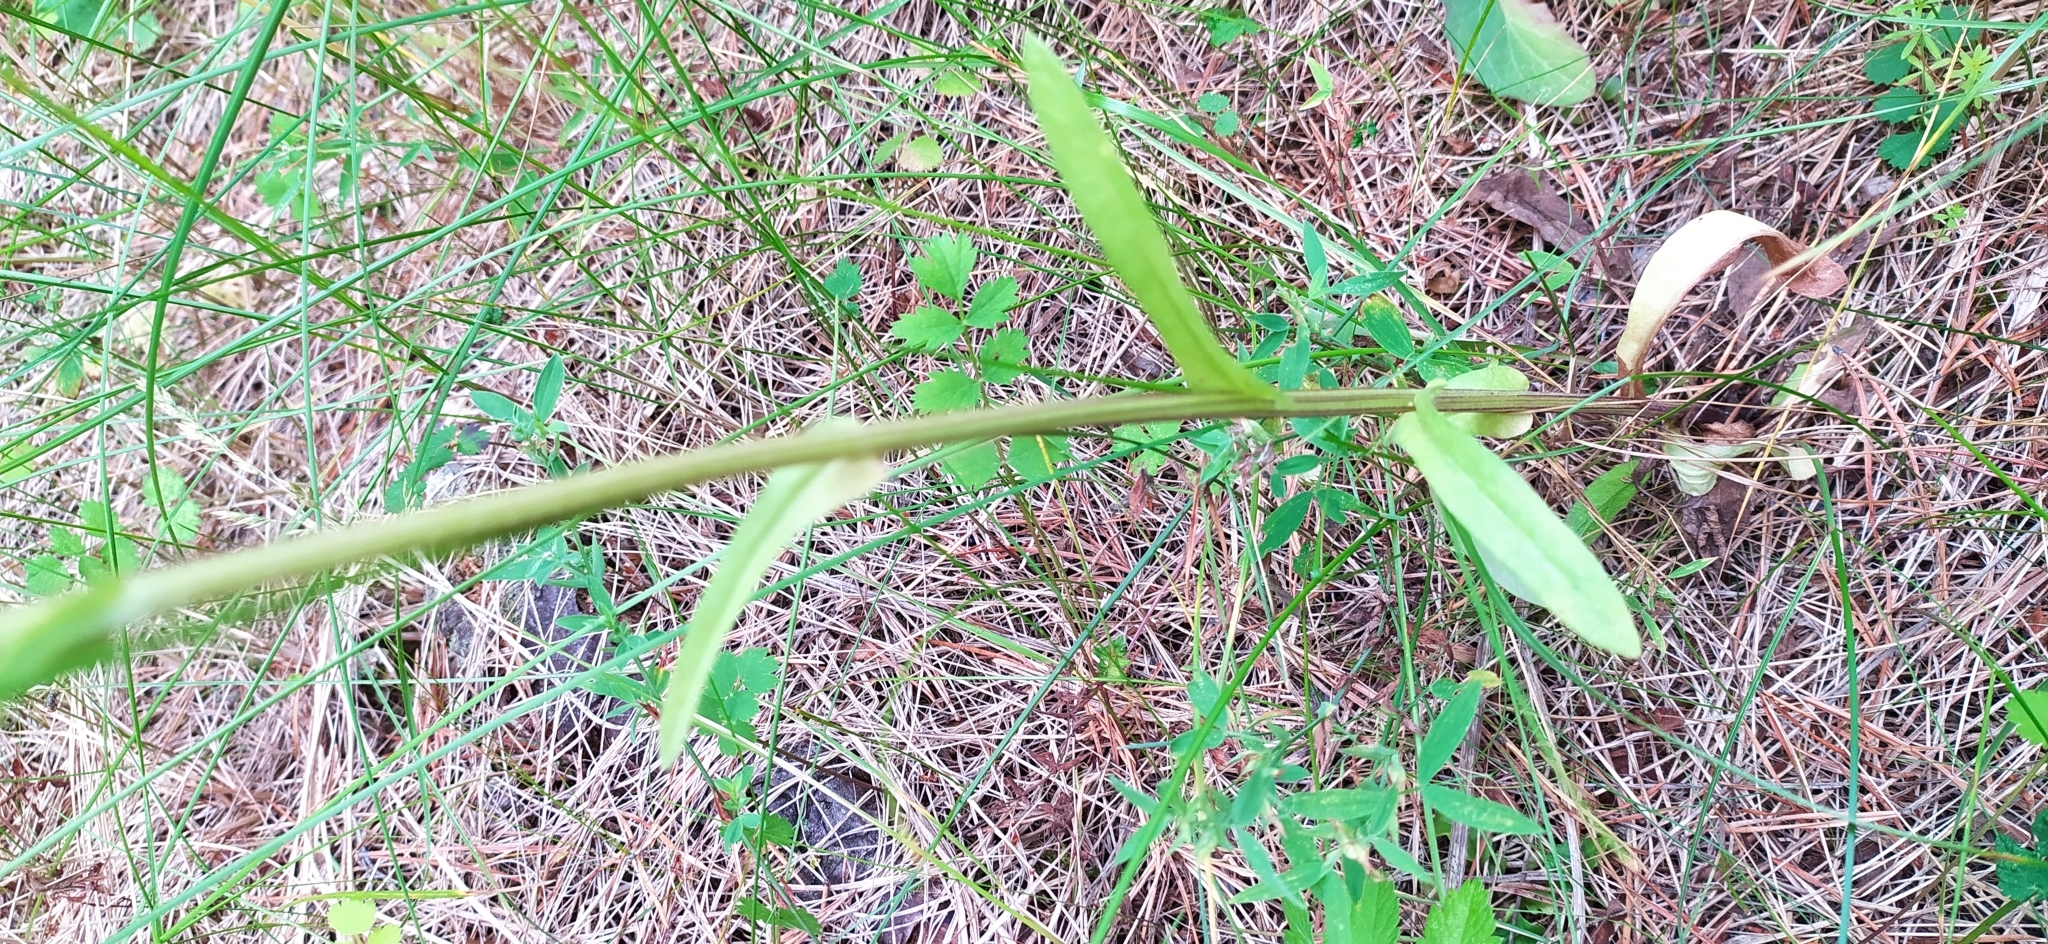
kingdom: Plantae
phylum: Tracheophyta
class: Magnoliopsida
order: Asterales
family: Asteraceae
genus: Tephroseris
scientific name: Tephroseris integrifolia
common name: Field fleawort
